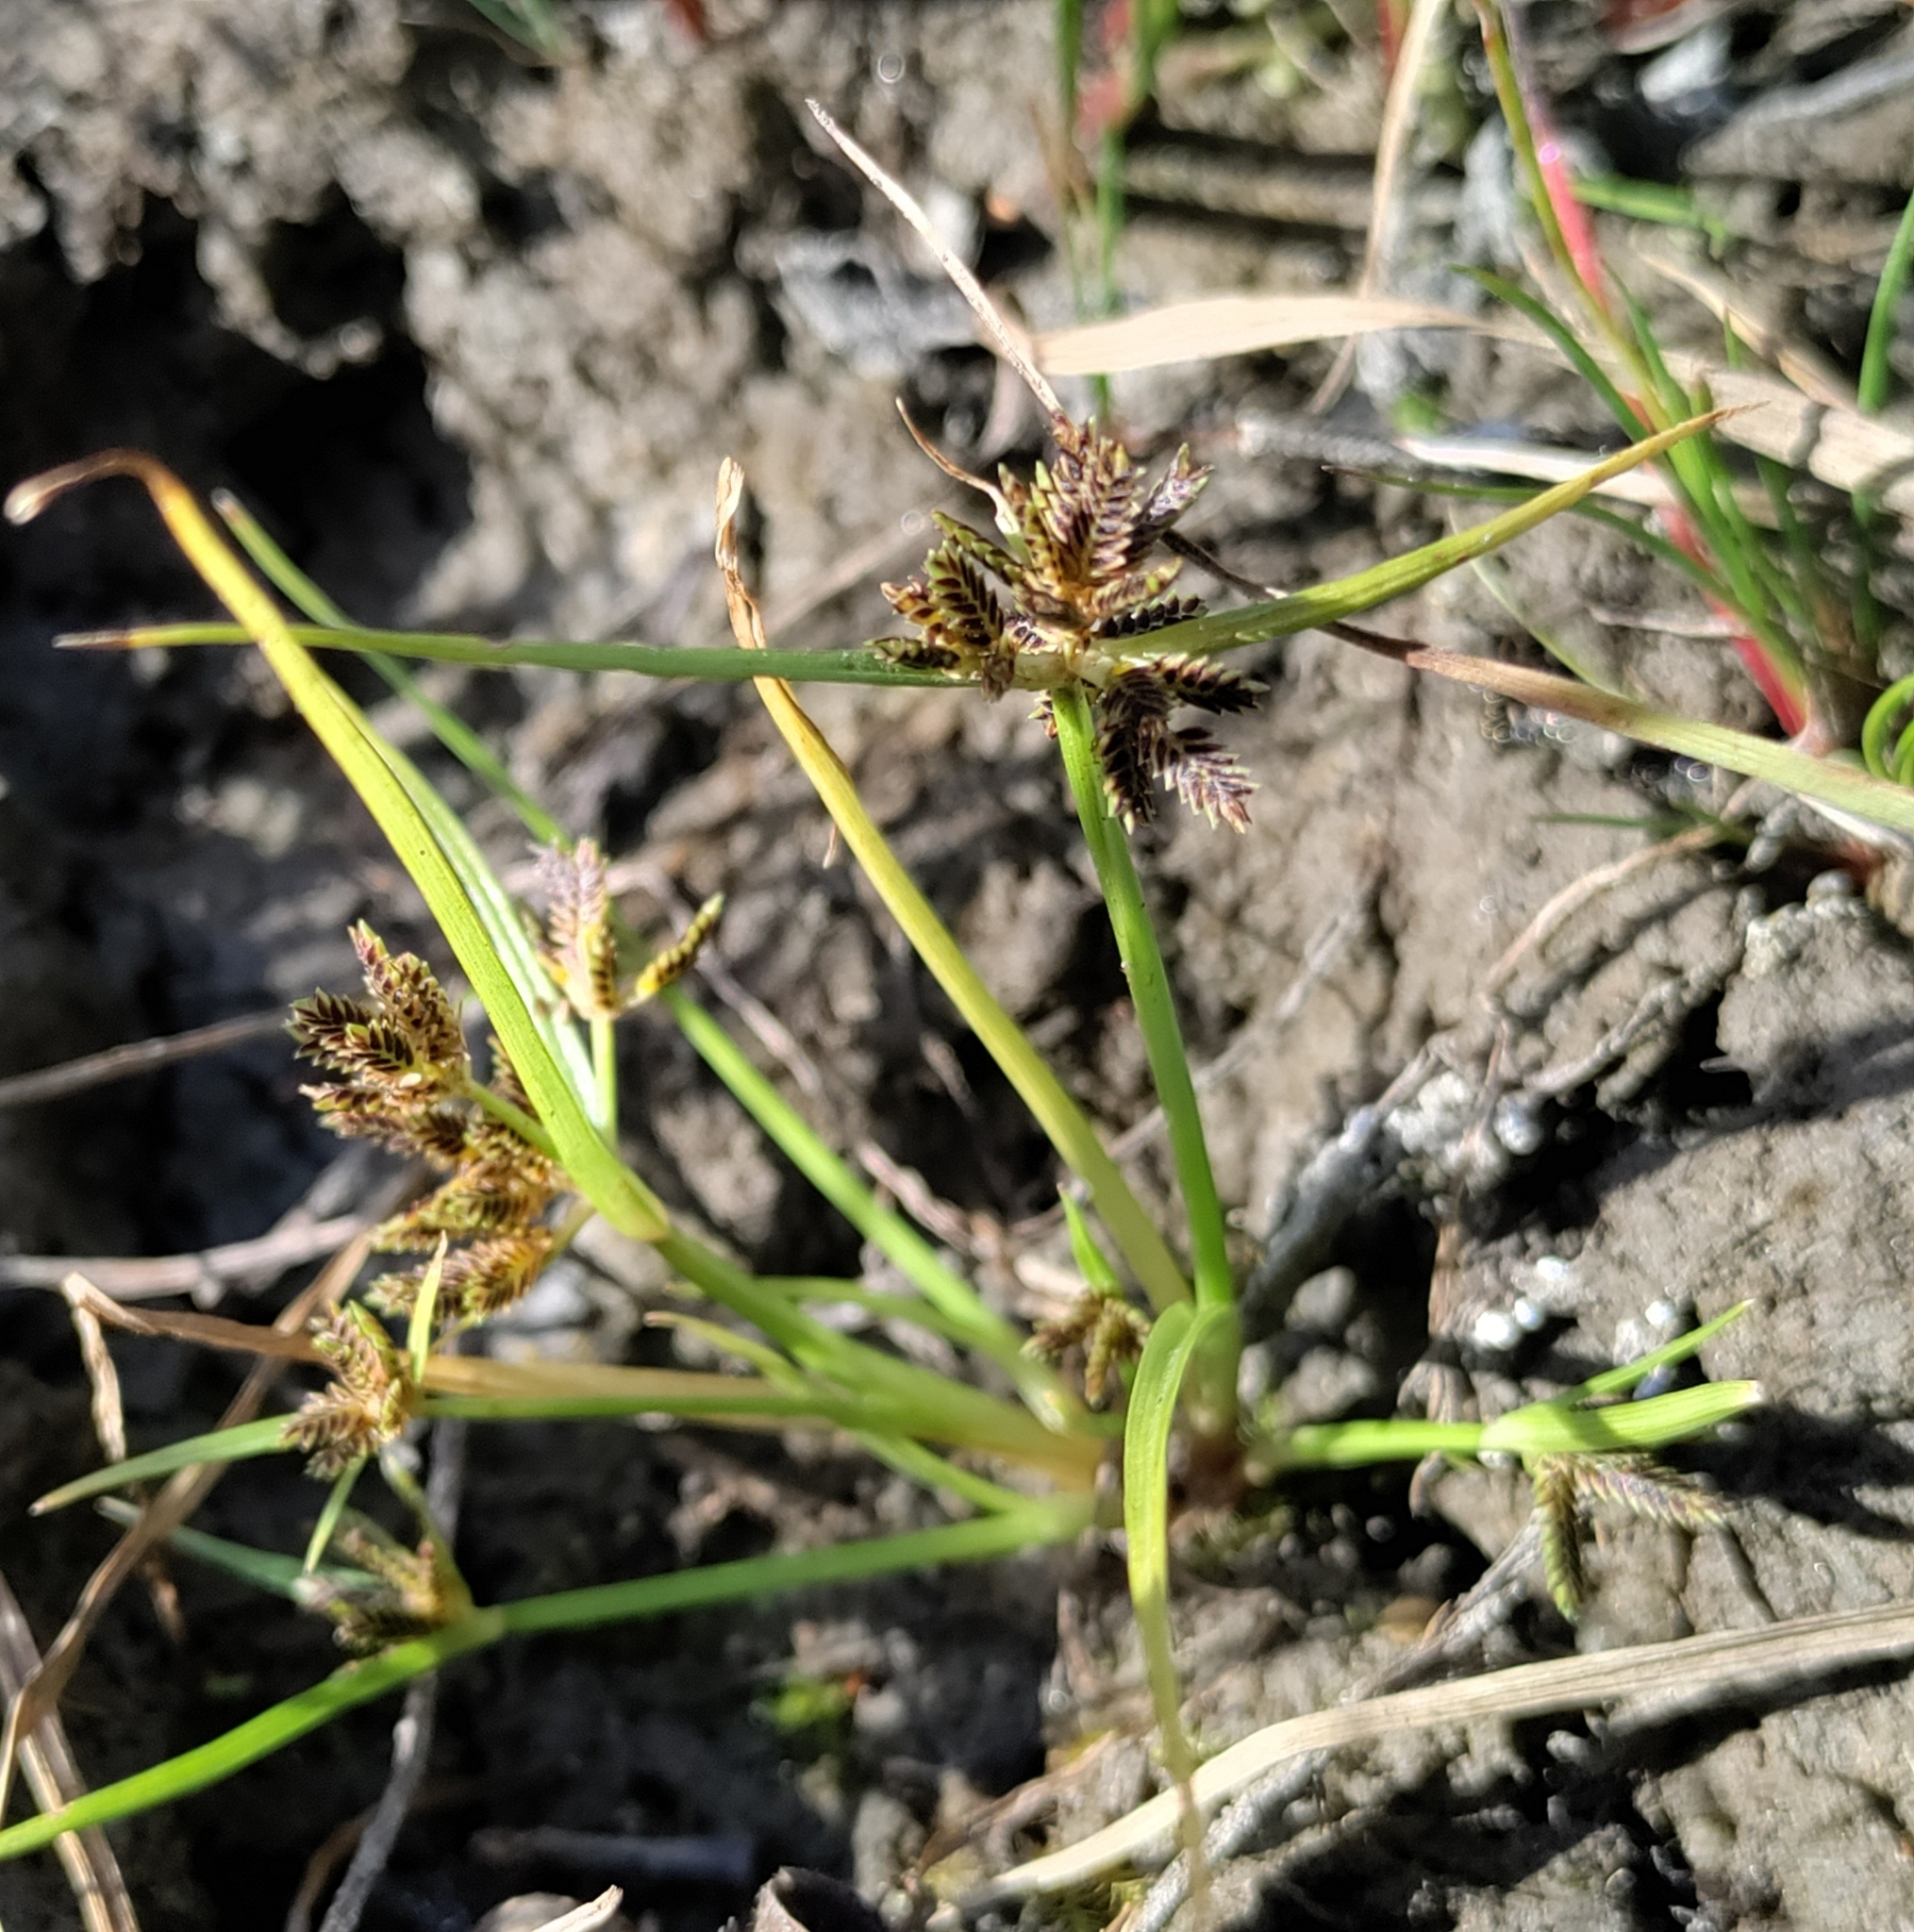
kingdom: Plantae
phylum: Tracheophyta
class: Liliopsida
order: Poales
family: Cyperaceae
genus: Cyperus
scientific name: Cyperus fuscus
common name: Brown galingale
